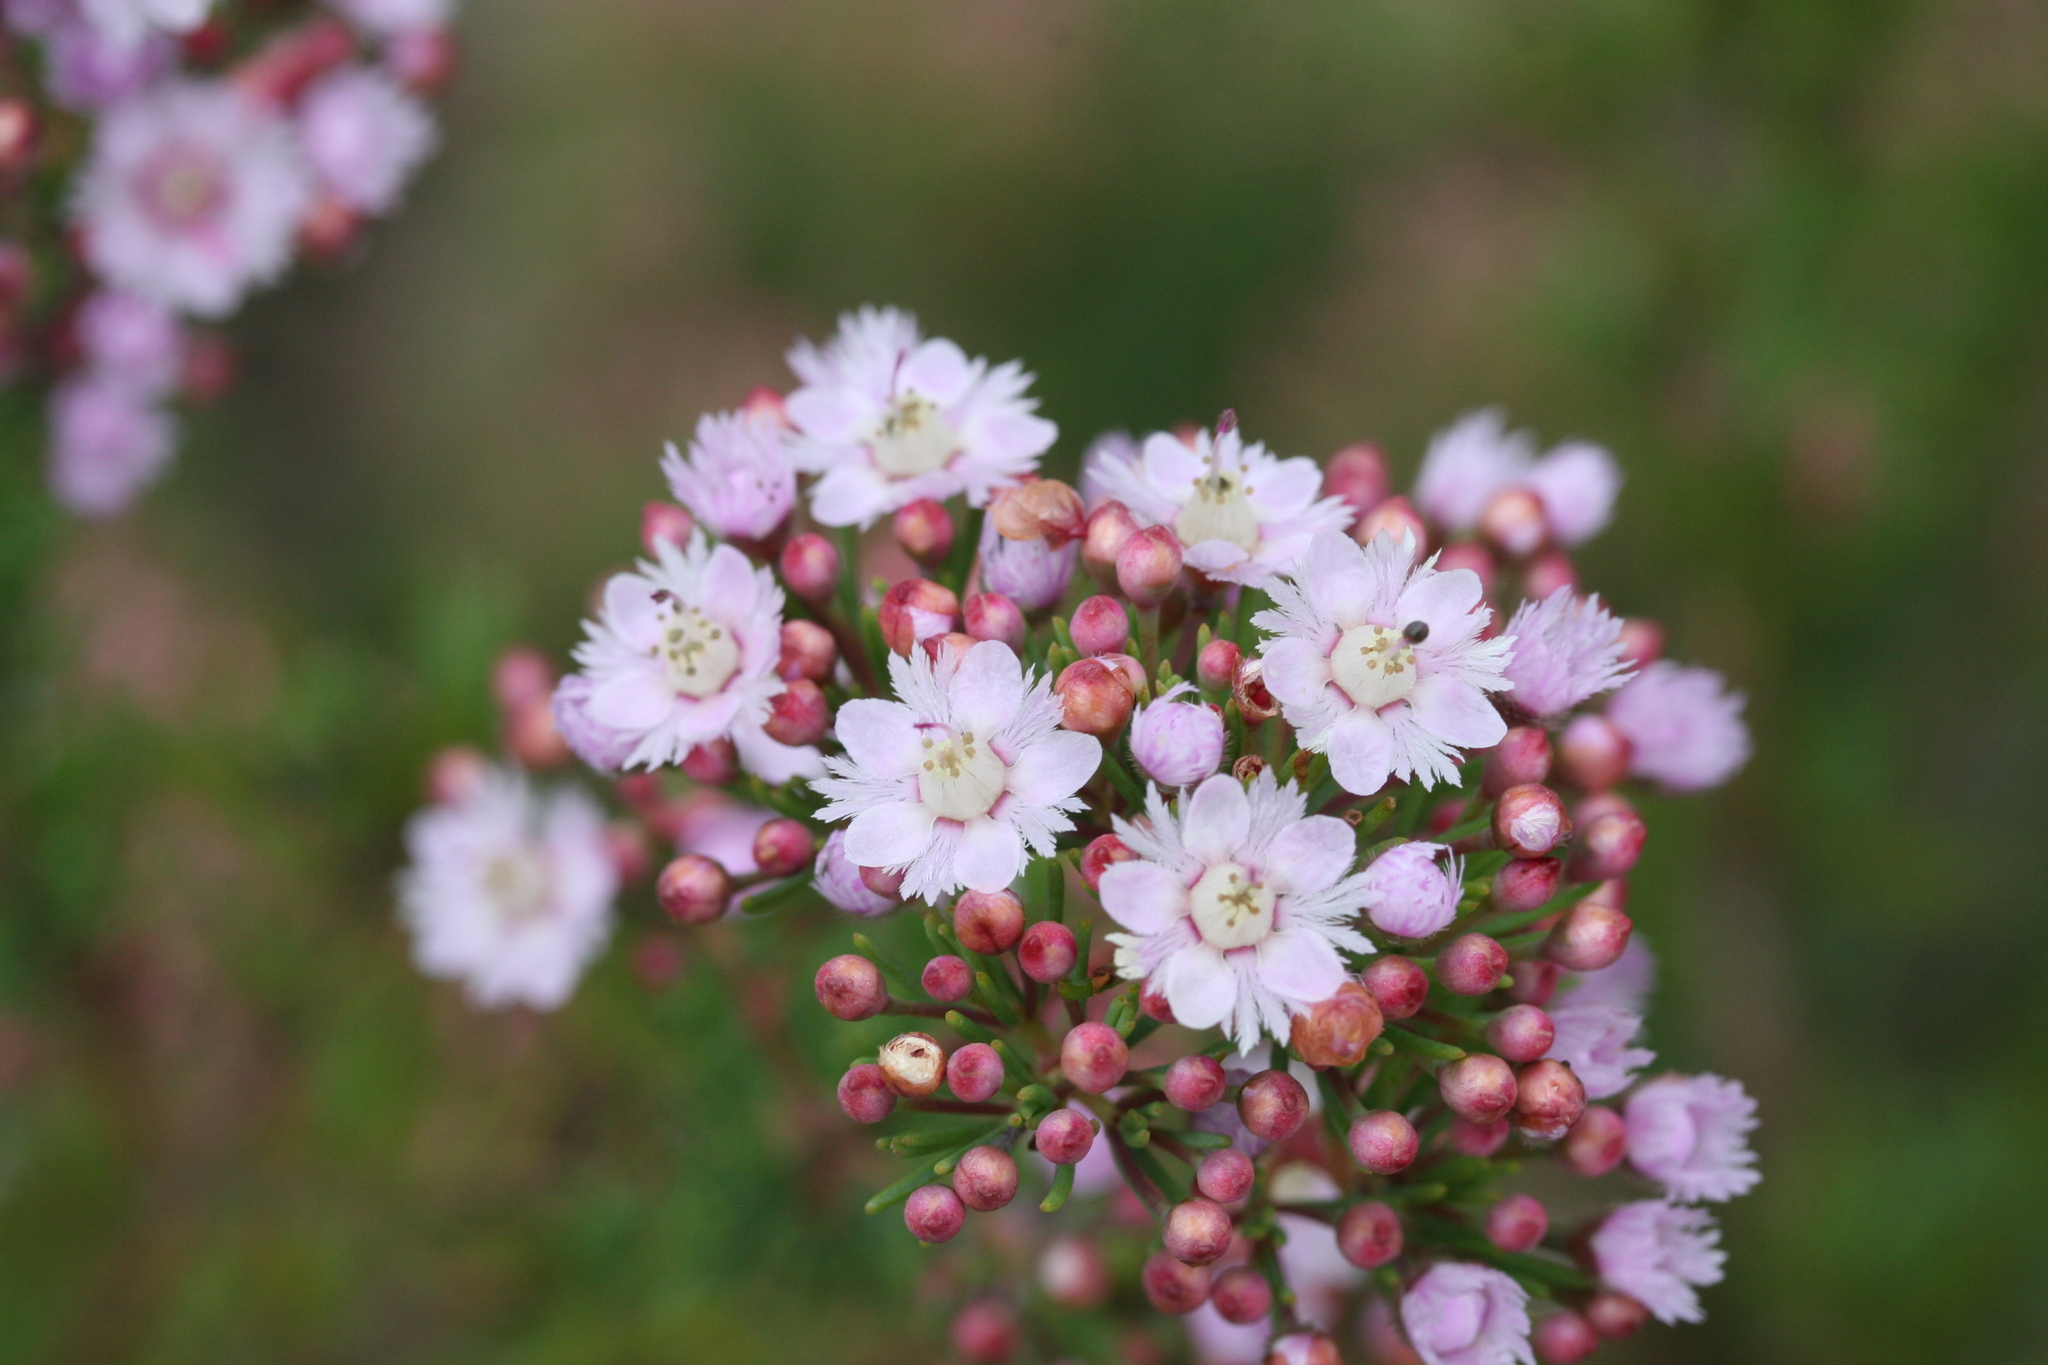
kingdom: Plantae
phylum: Tracheophyta
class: Magnoliopsida
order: Myrtales
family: Myrtaceae
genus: Verticordia
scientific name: Verticordia plumosa
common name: Plume feather-flower
